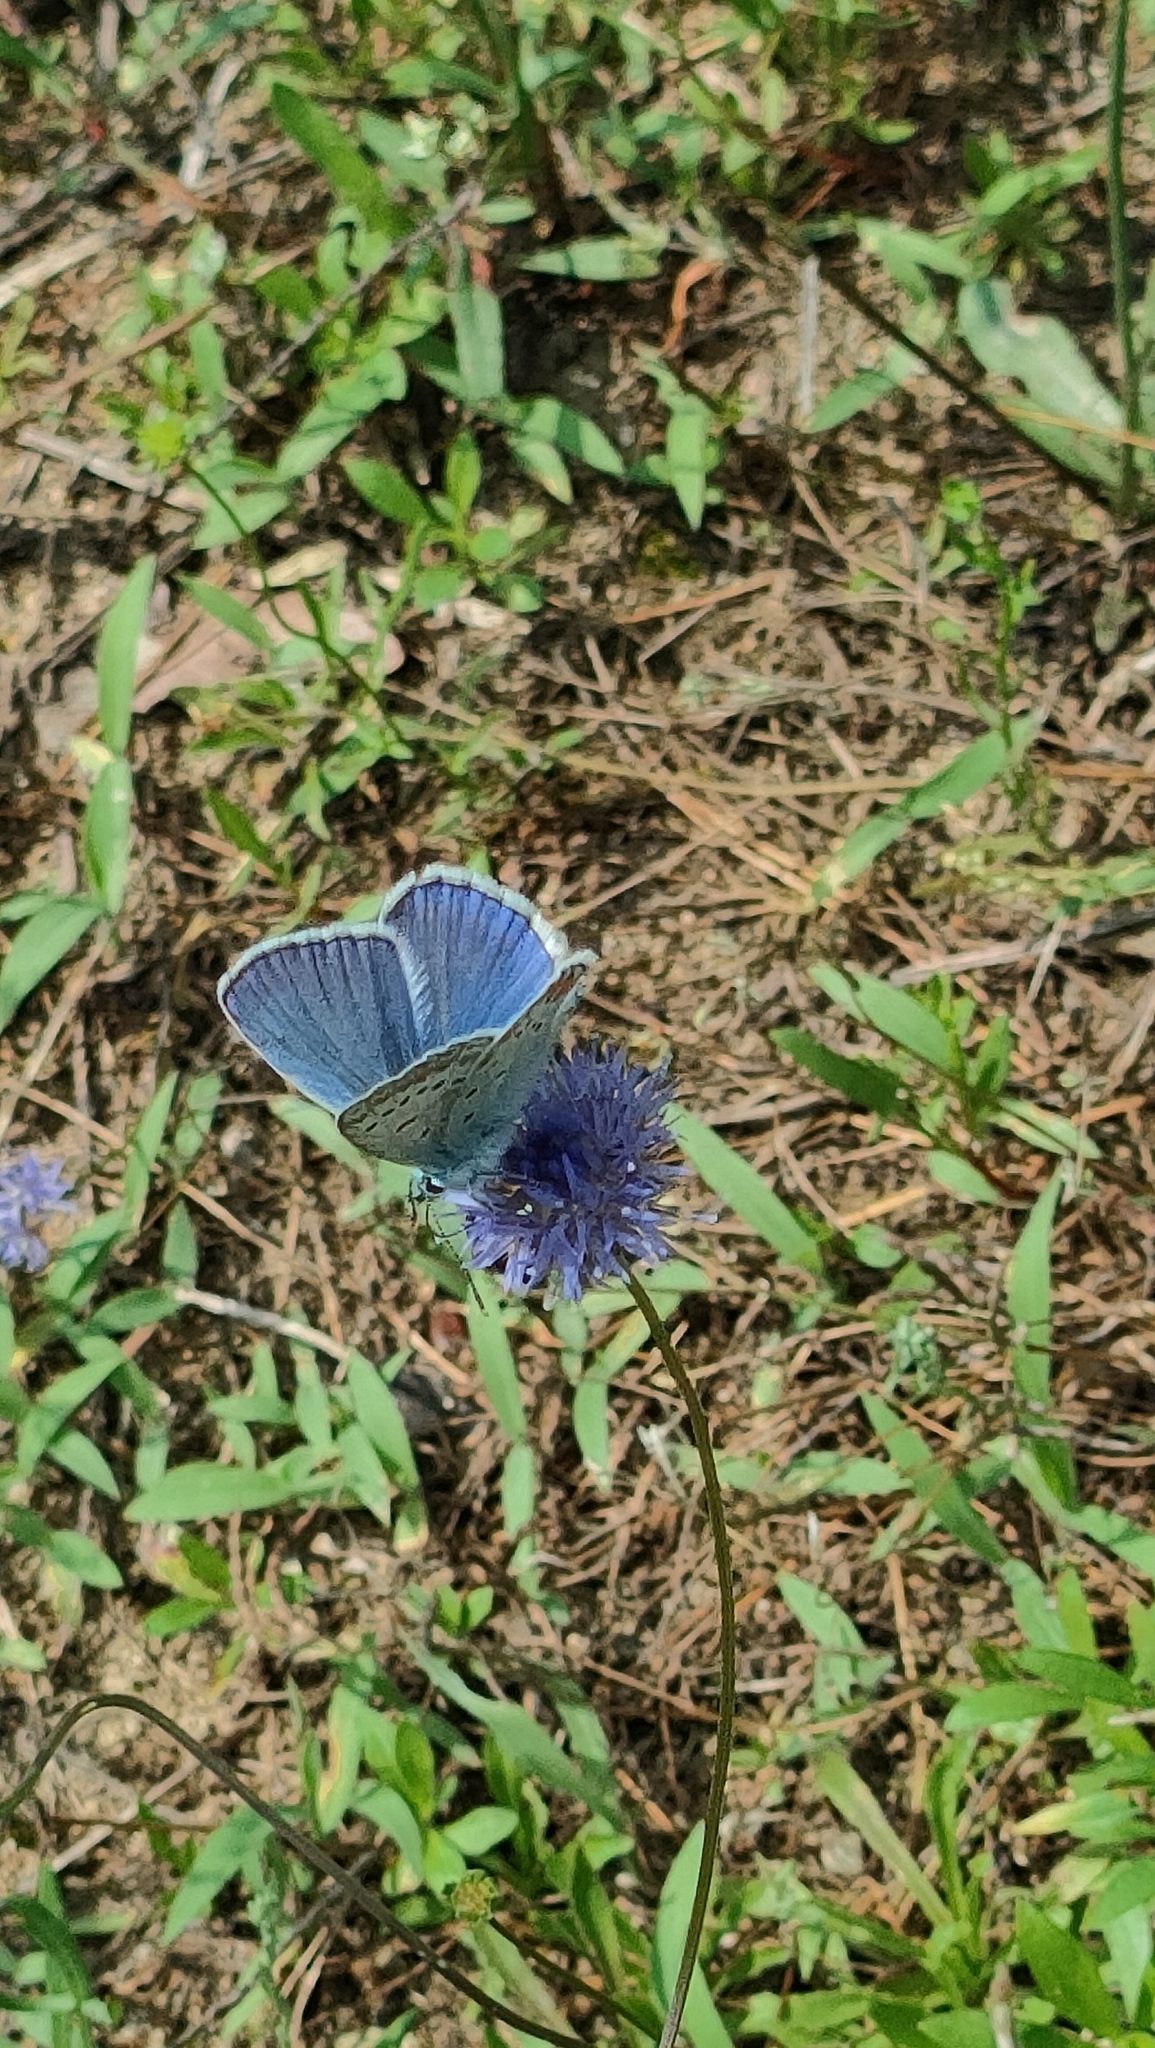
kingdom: Animalia
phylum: Arthropoda
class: Insecta
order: Lepidoptera
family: Lycaenidae
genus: Polyommatus
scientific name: Polyommatus icarus
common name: Common blue
